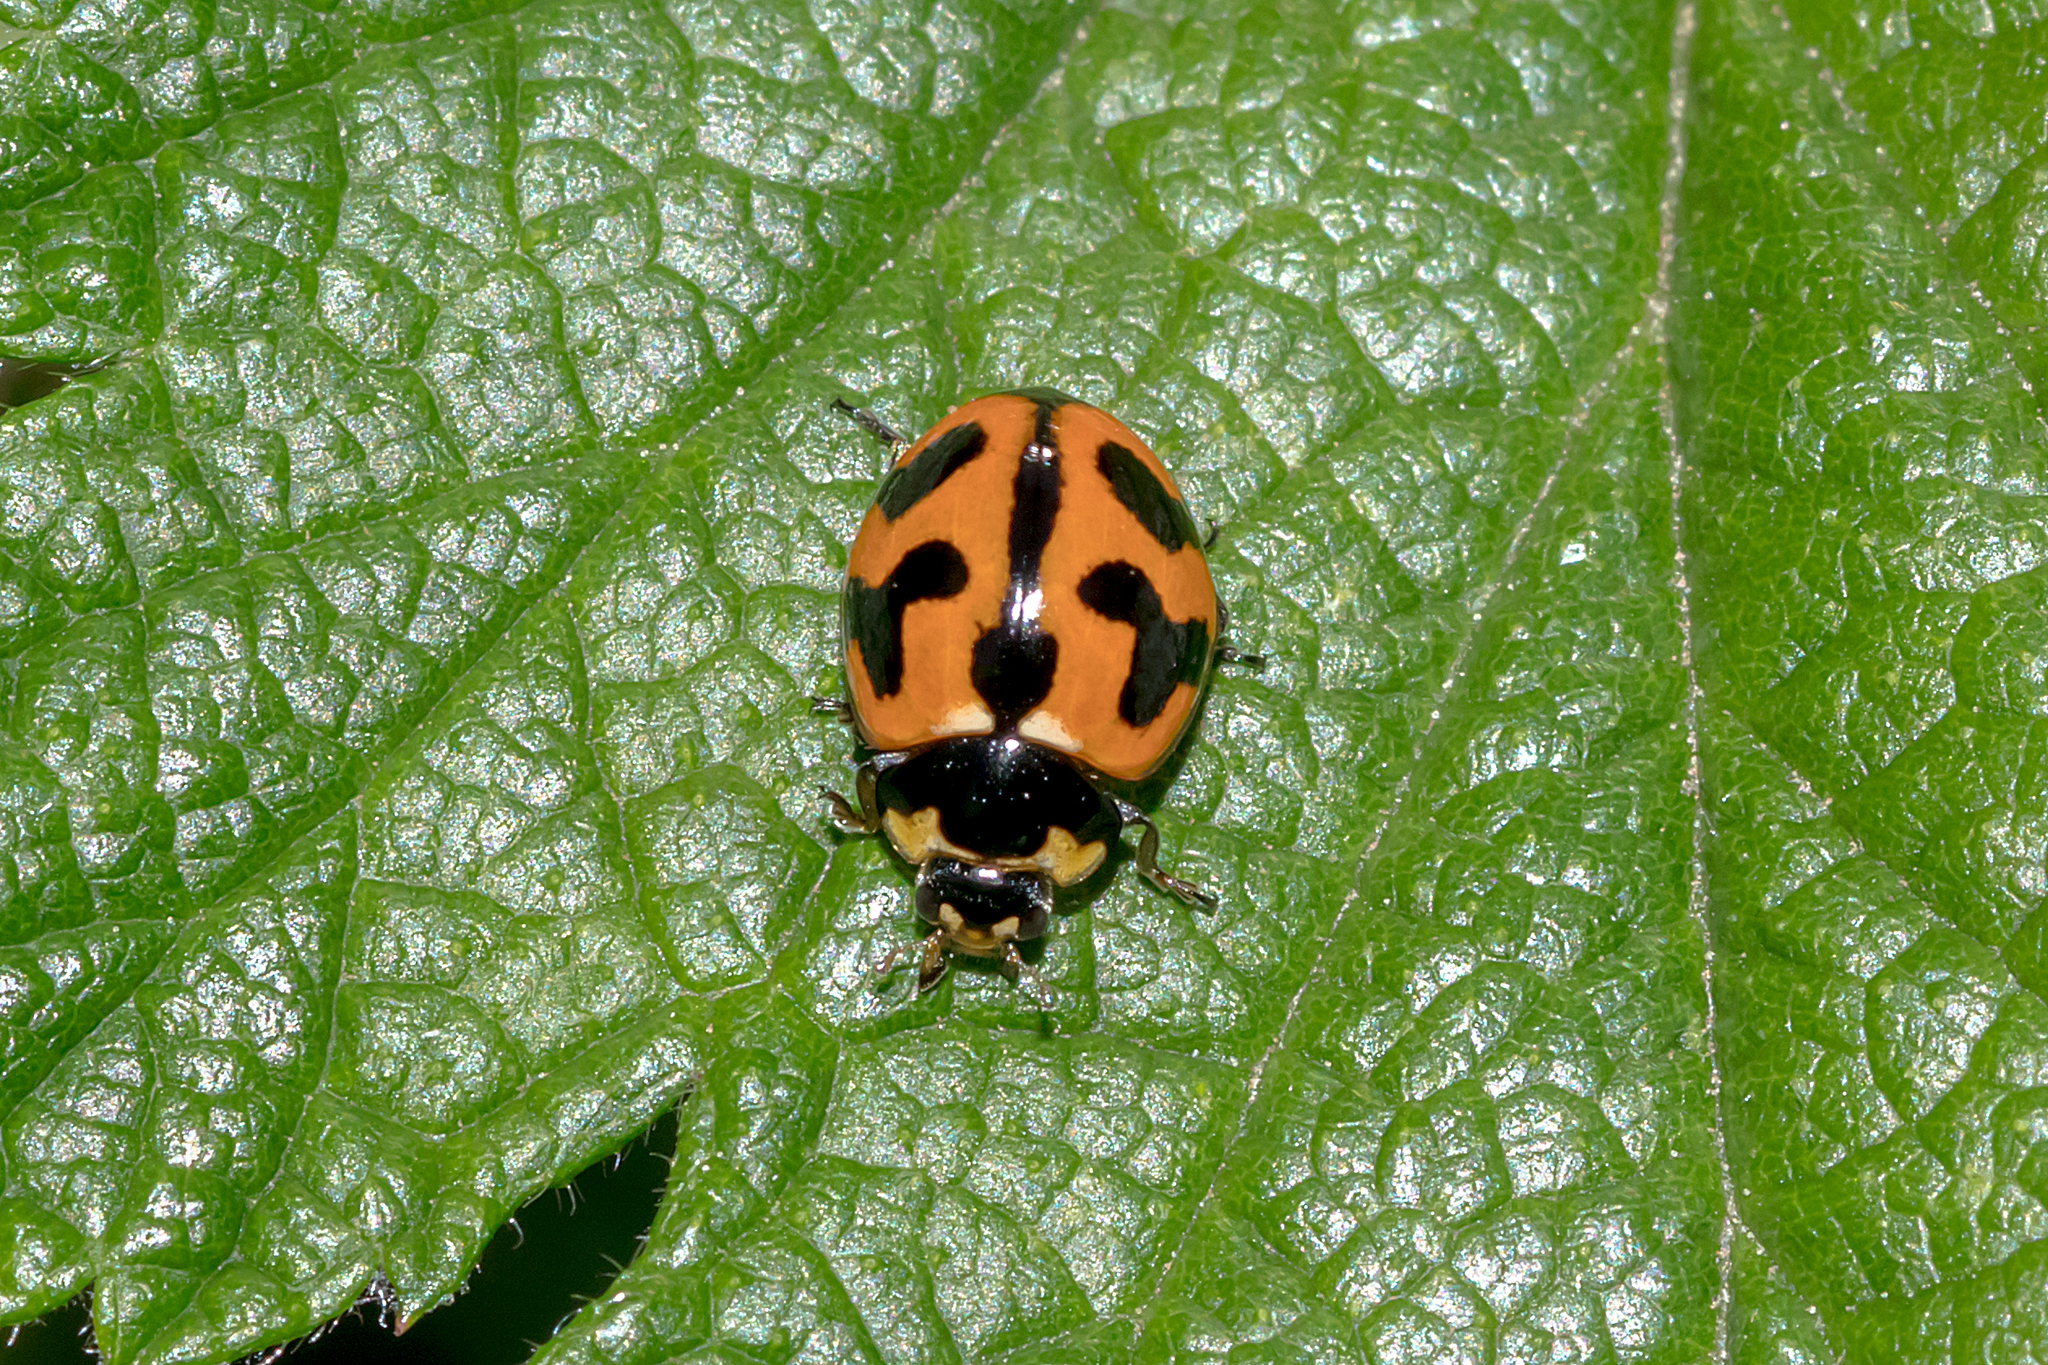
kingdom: Animalia
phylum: Arthropoda
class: Insecta
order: Coleoptera
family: Coccinellidae
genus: Coccinella
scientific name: Coccinella transversalis
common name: Transverse lady beetle
